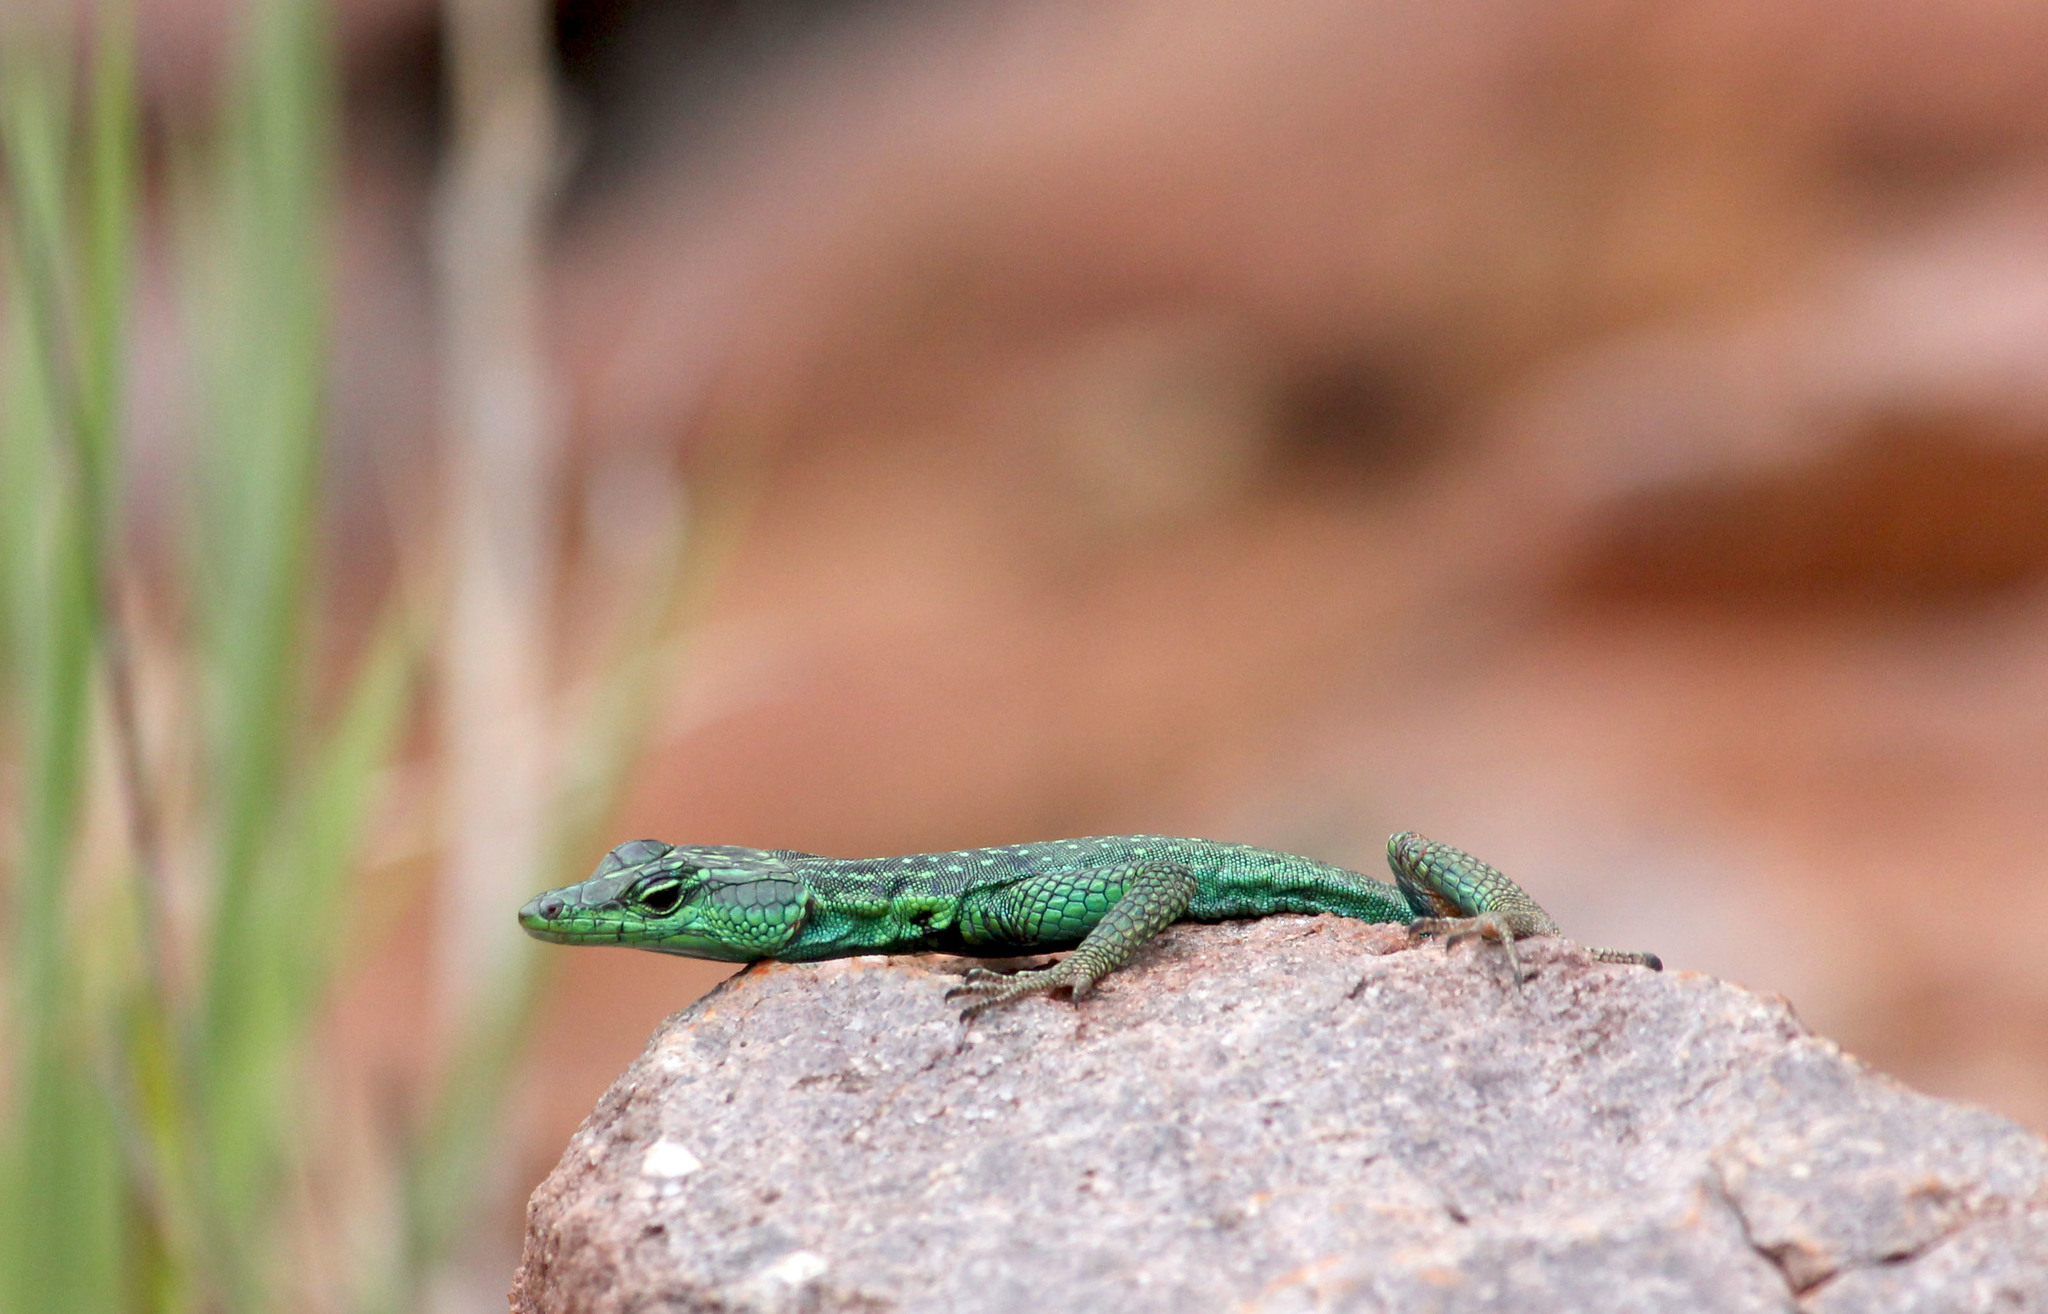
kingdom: Animalia
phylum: Chordata
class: Squamata
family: Cordylidae
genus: Platysaurus
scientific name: Platysaurus relictus
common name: Soutpansberg flat lizard
